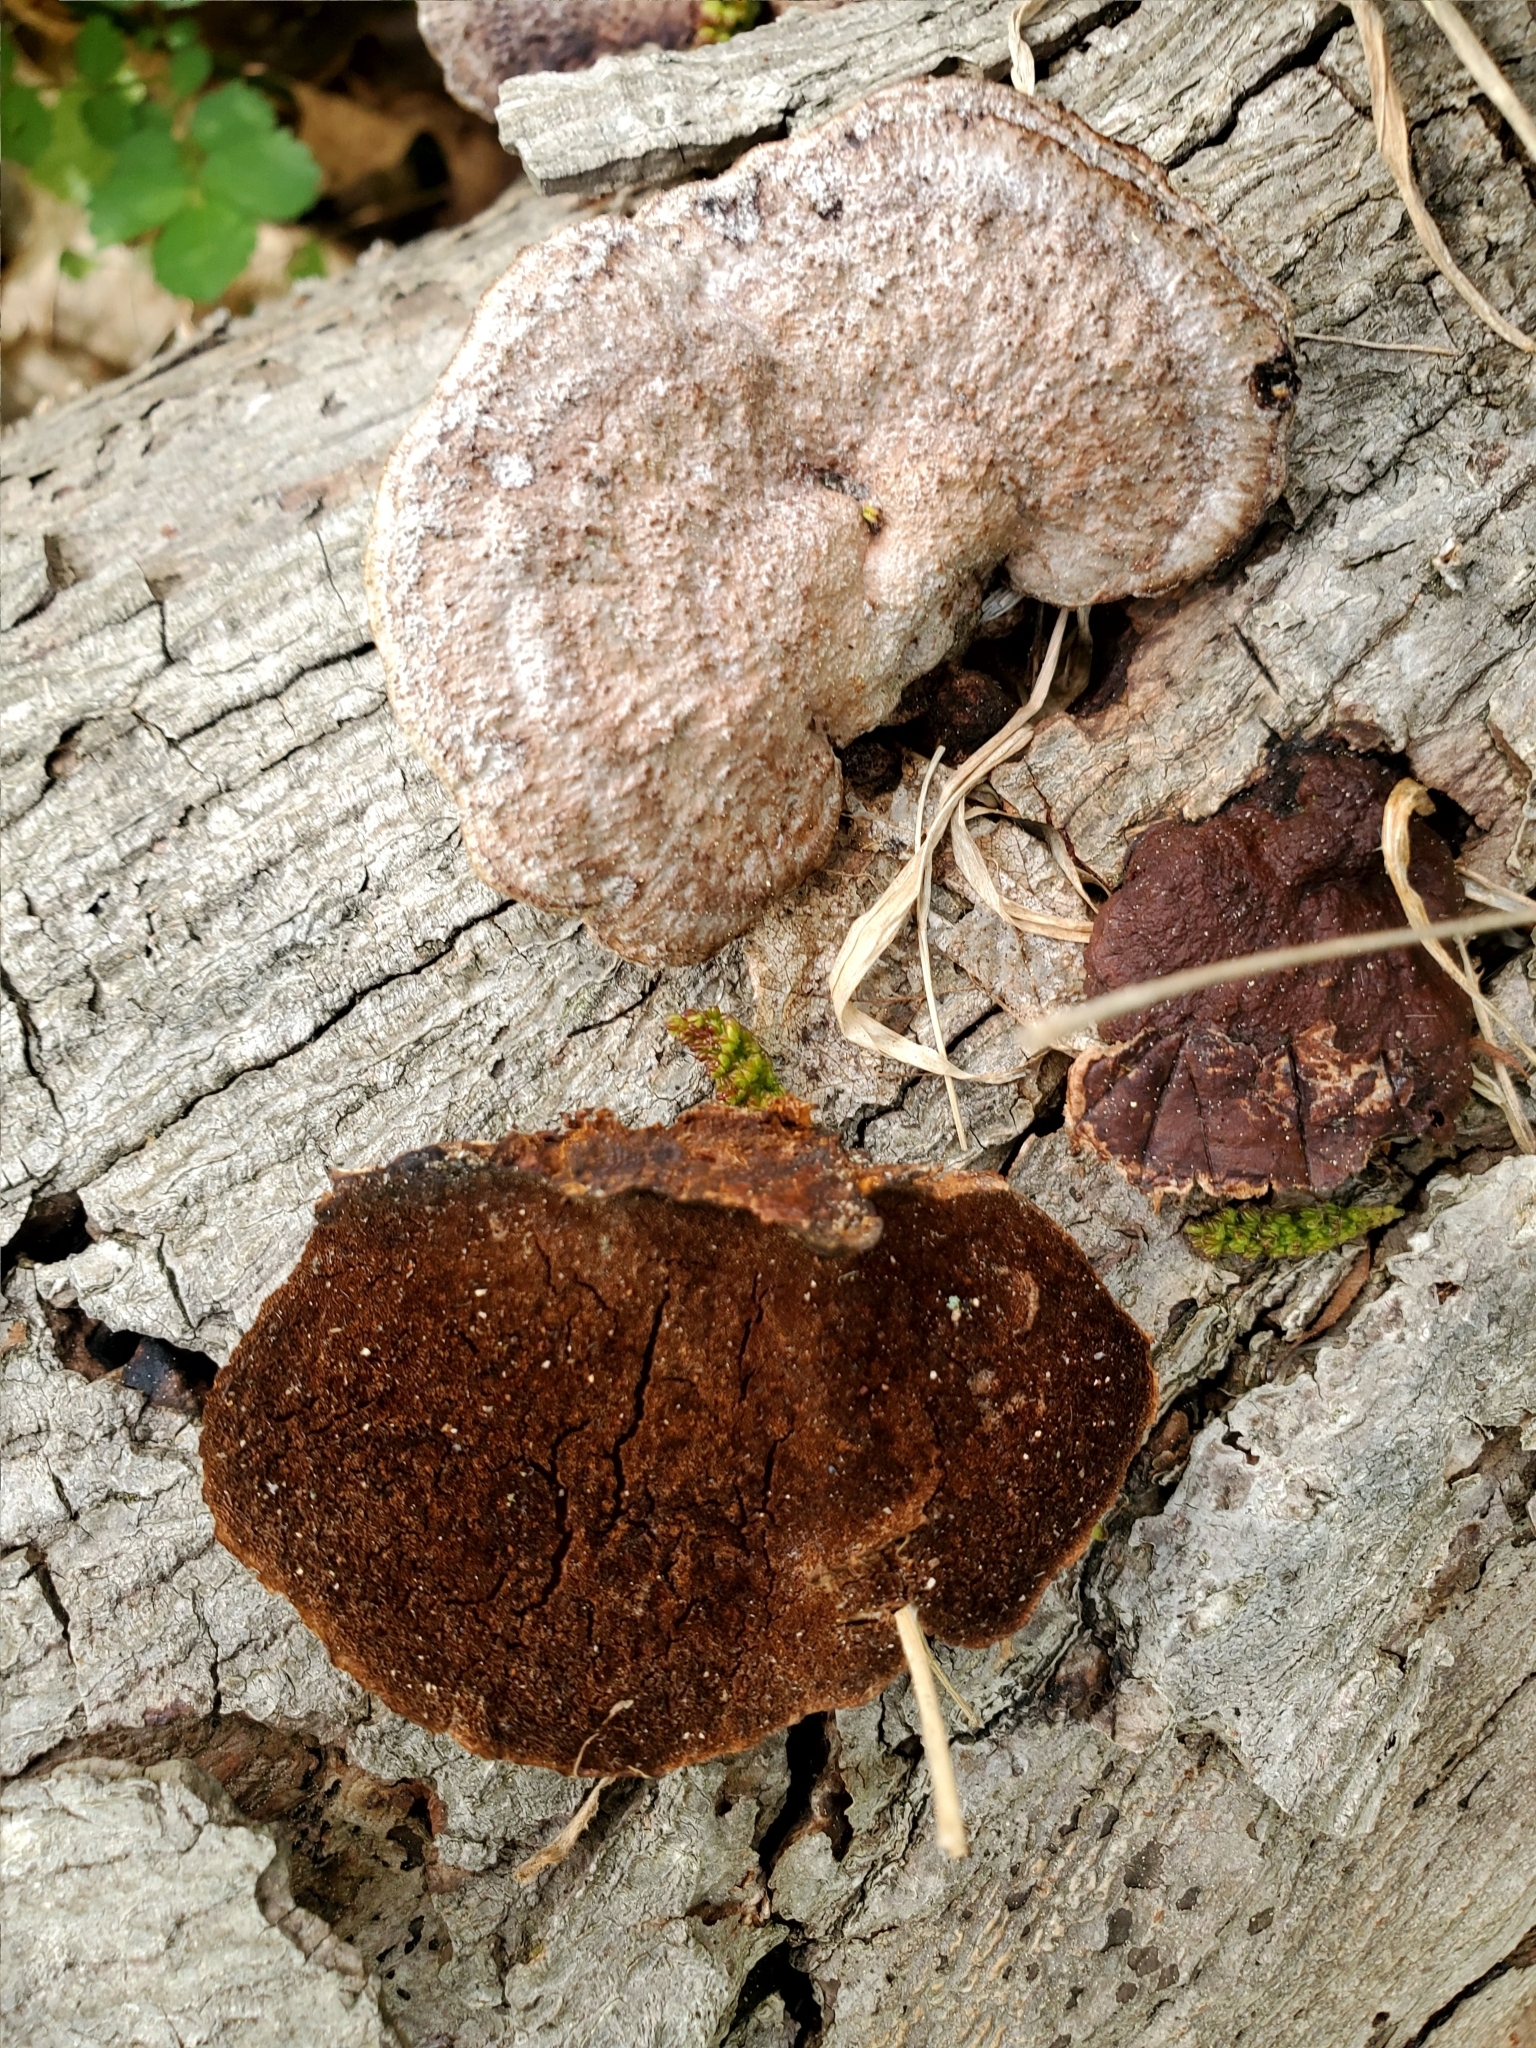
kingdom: Fungi
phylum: Basidiomycota
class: Agaricomycetes
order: Hymenochaetales
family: Hymenochaetaceae
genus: Phellinus
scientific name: Phellinus gilvus
